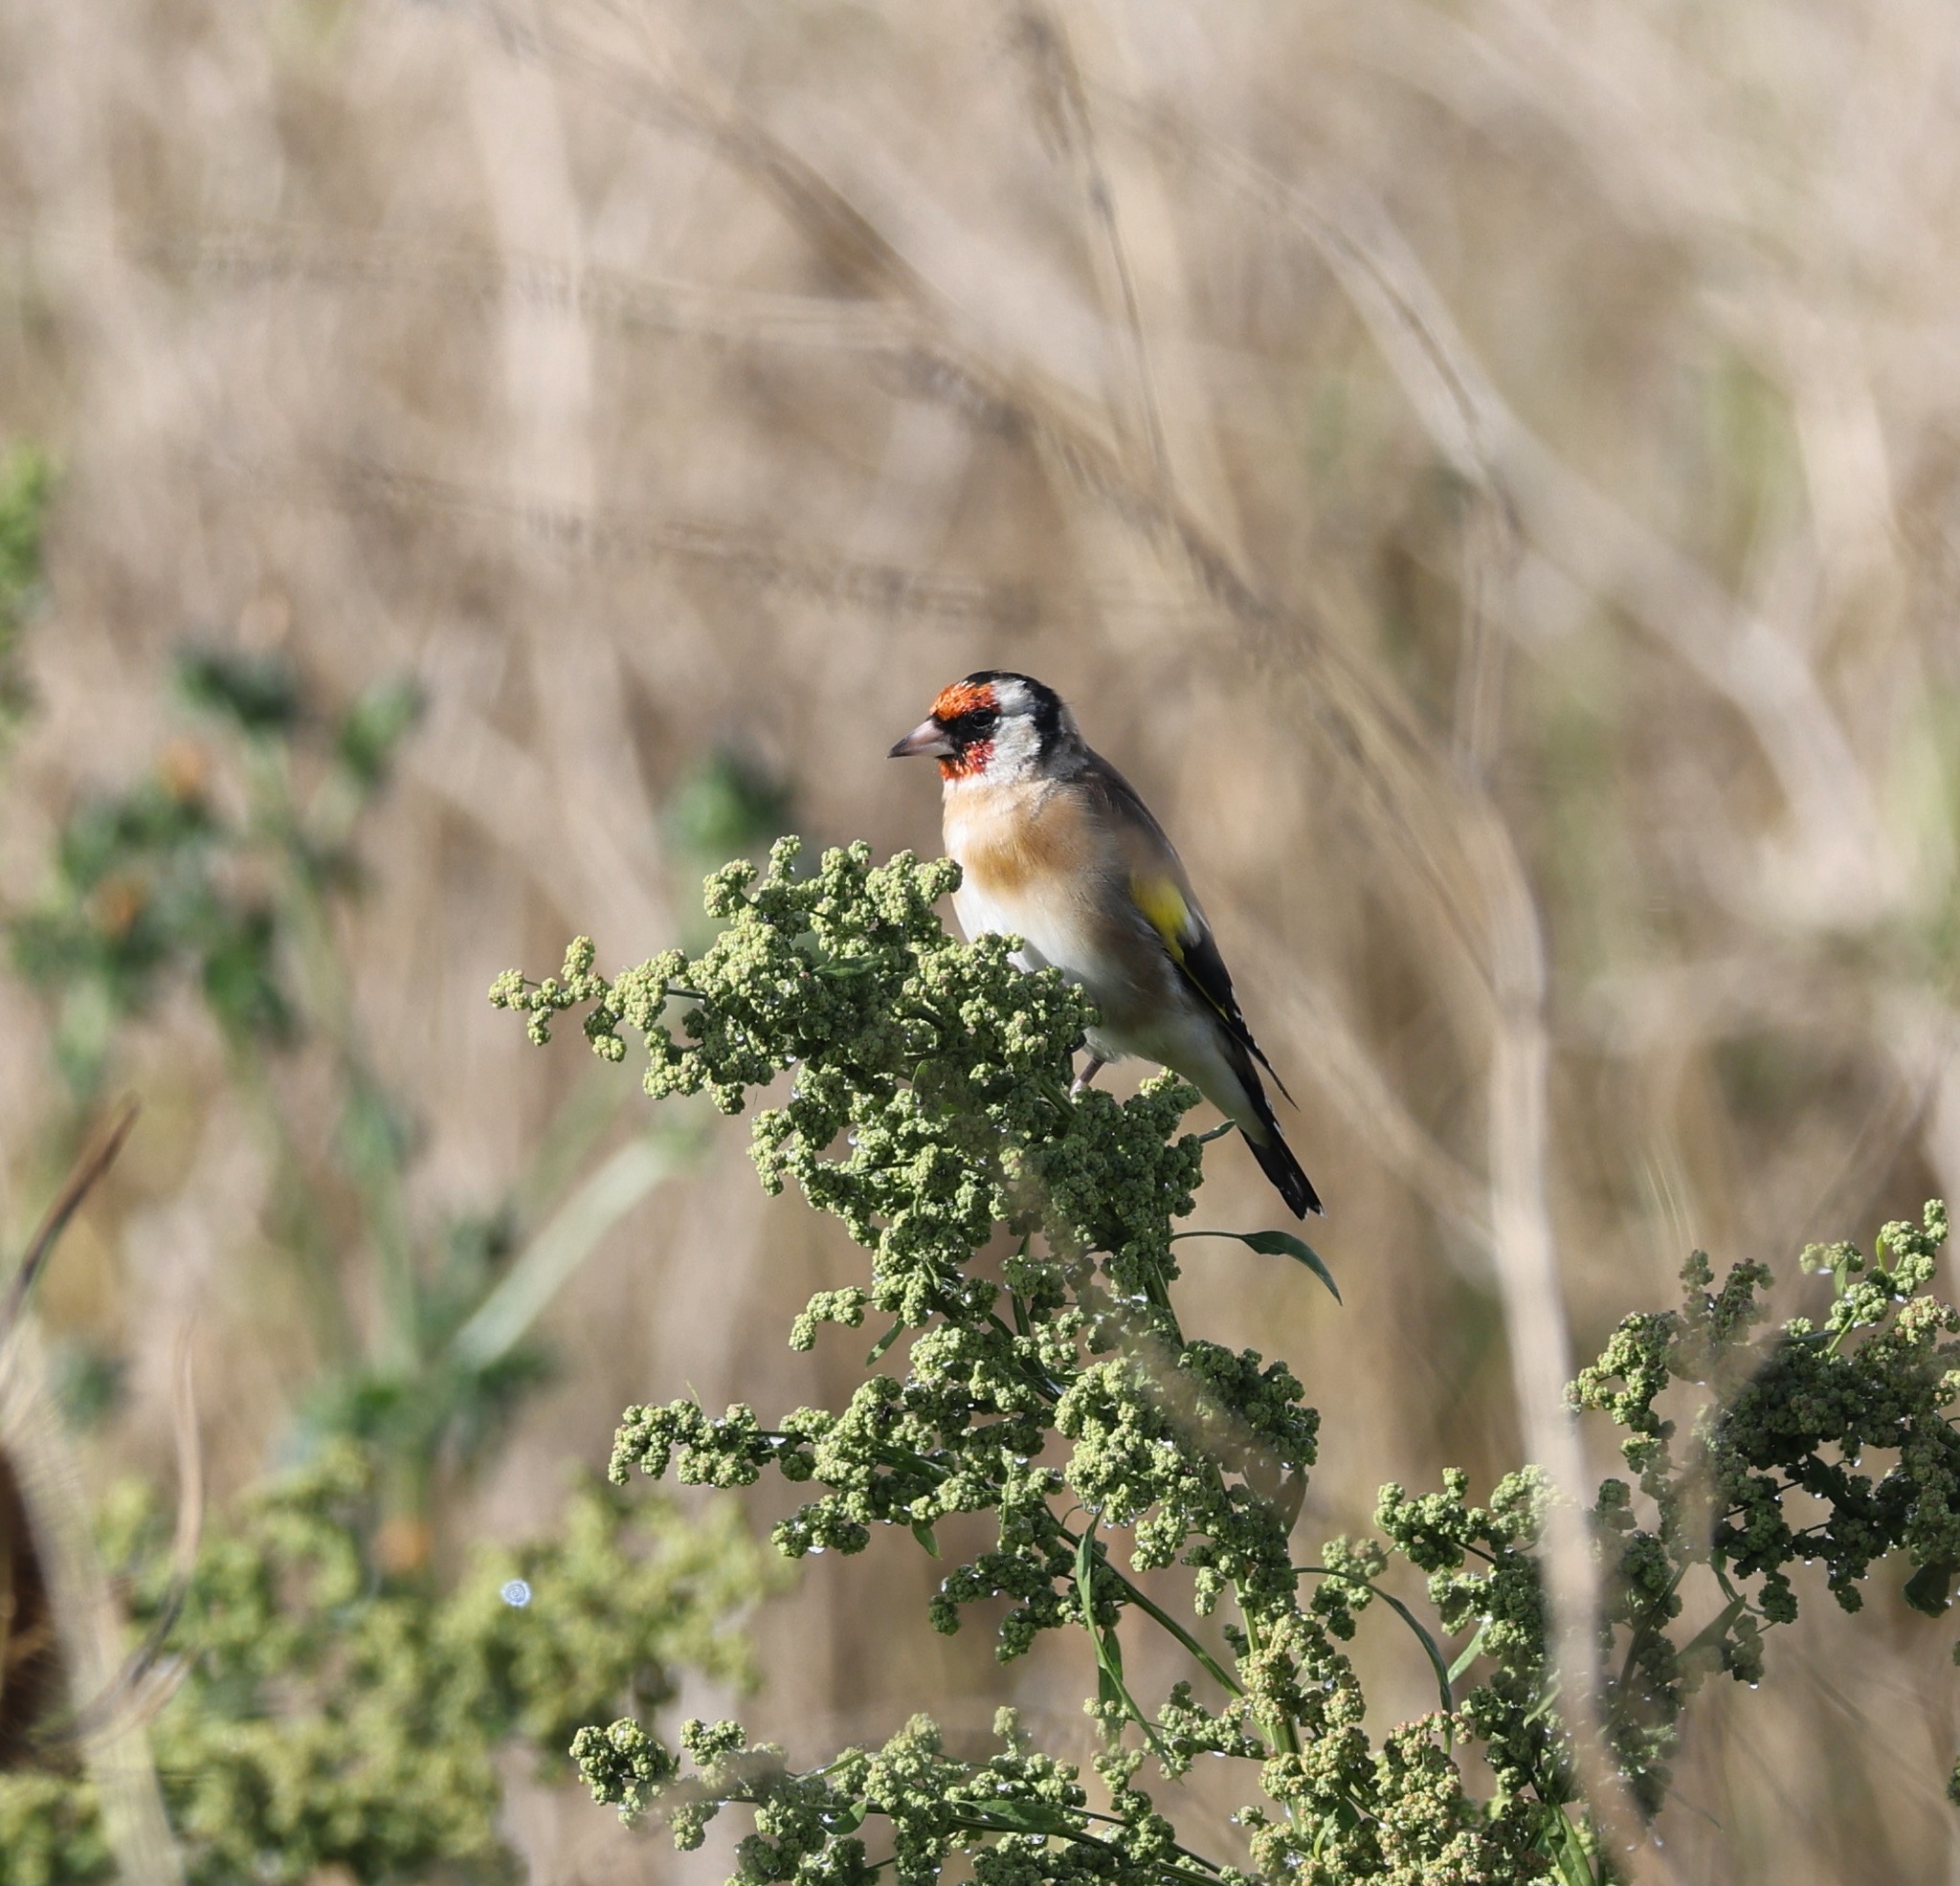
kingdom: Animalia
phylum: Chordata
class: Aves
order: Passeriformes
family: Fringillidae
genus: Carduelis
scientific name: Carduelis carduelis
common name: European goldfinch
